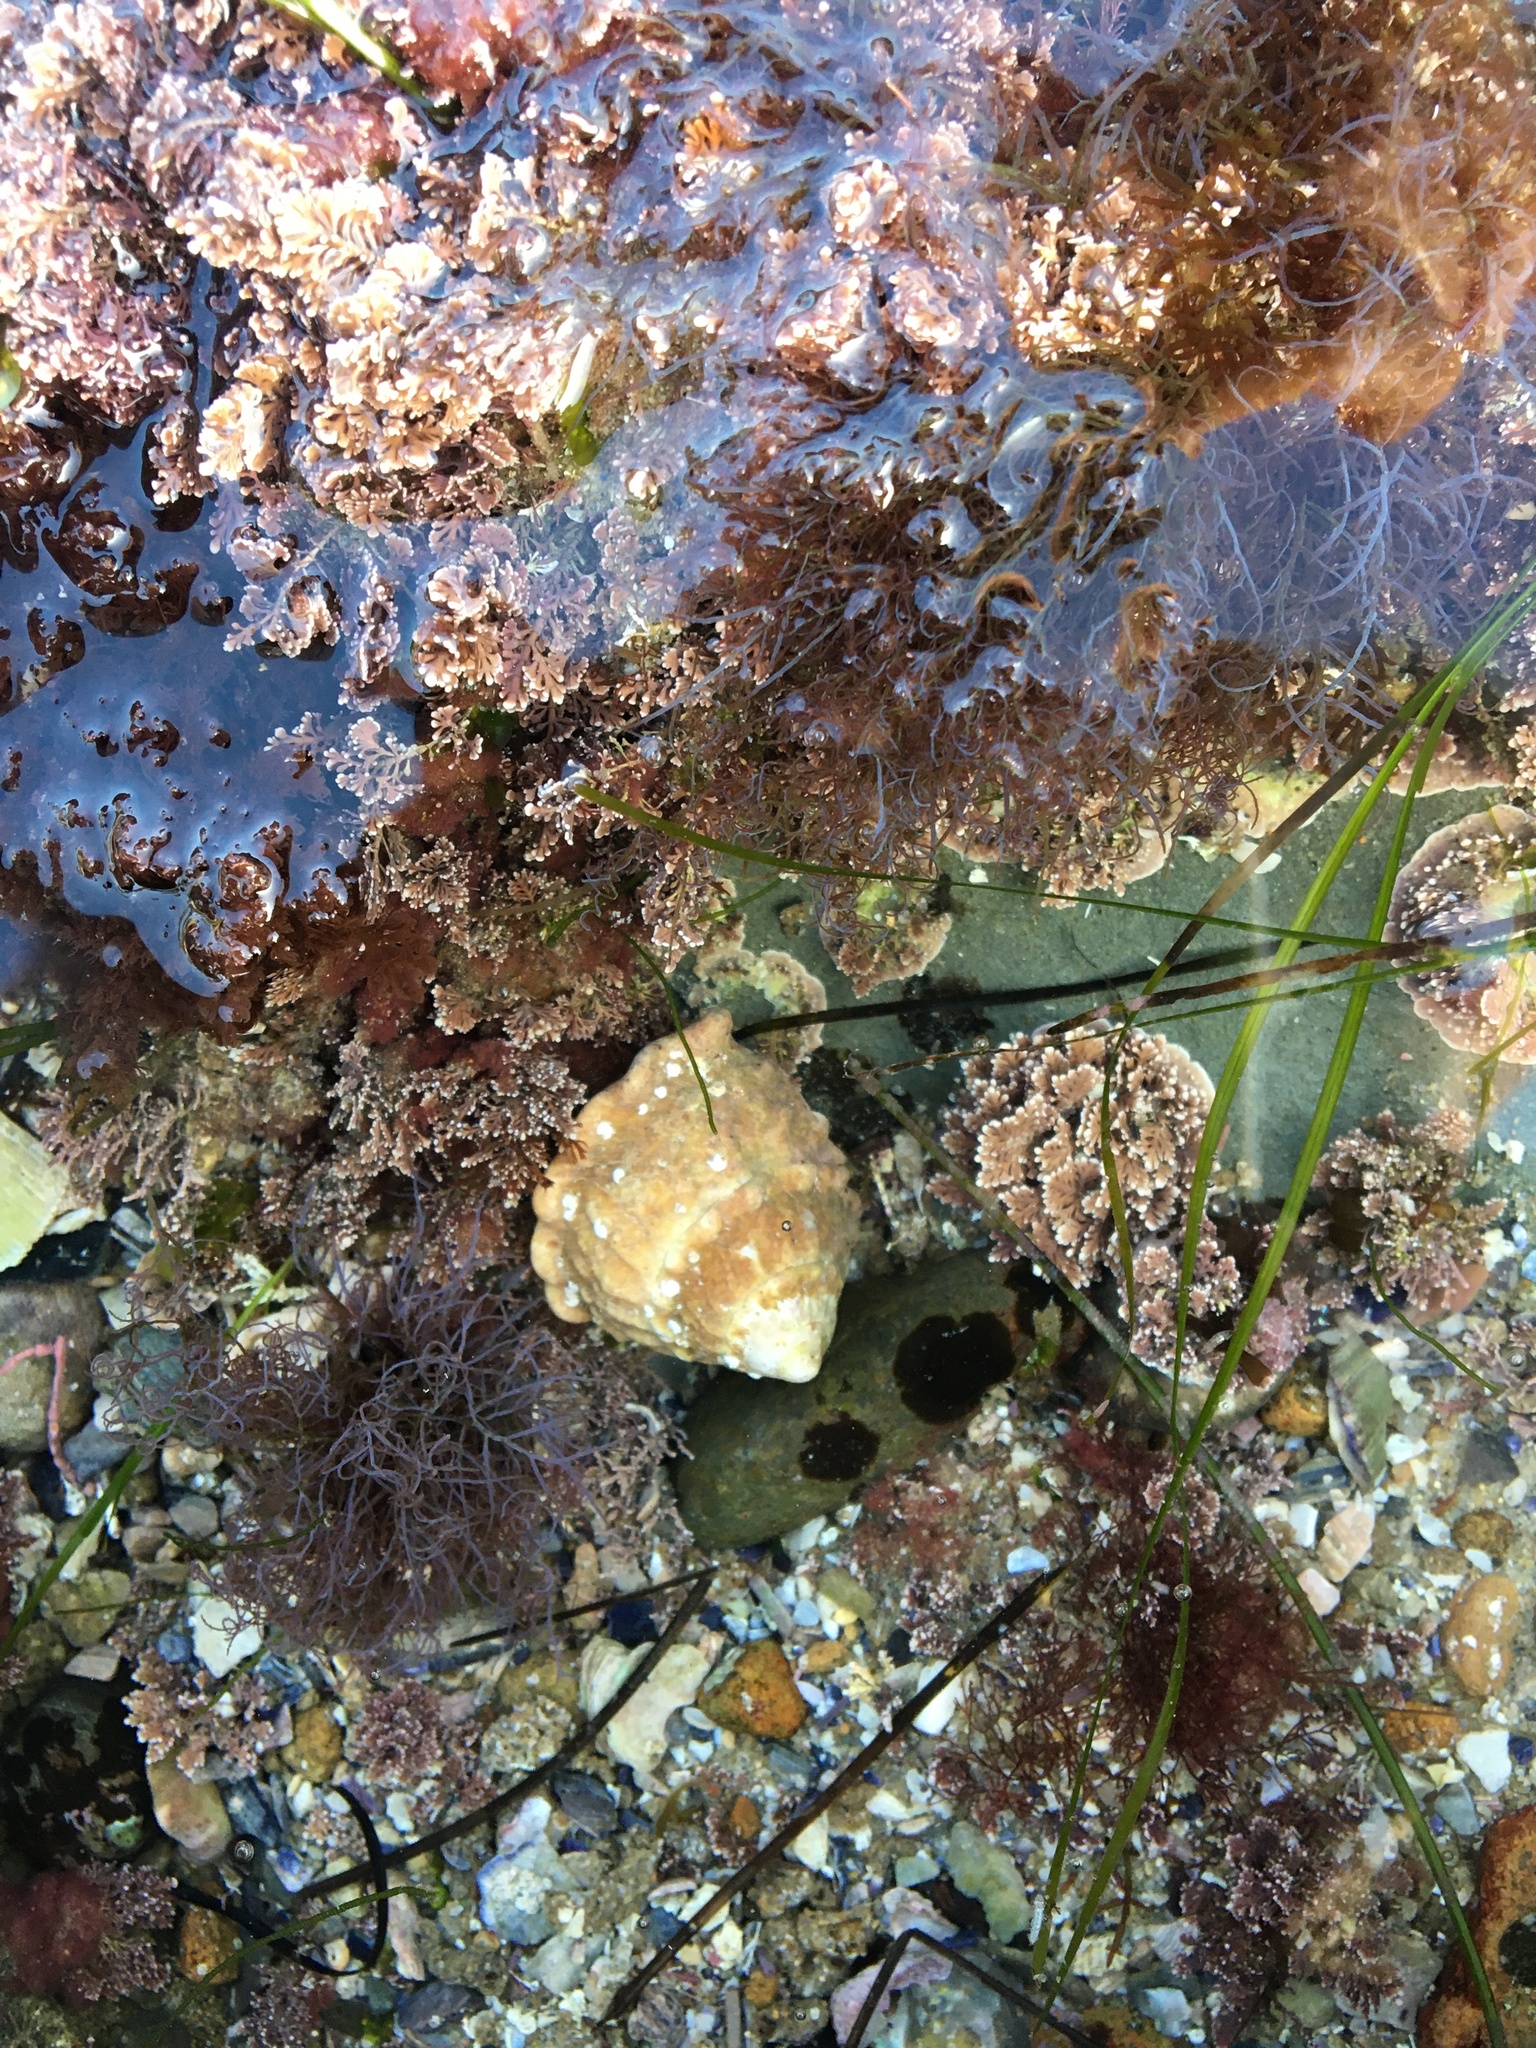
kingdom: Animalia
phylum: Mollusca
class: Gastropoda
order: Trochida
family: Turbinidae
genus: Megastraea
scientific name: Megastraea undosa
